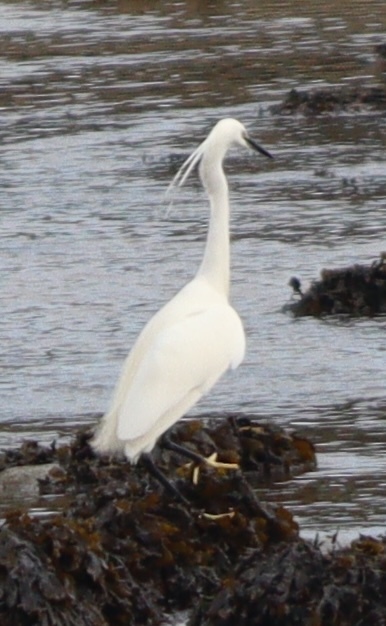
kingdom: Animalia
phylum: Chordata
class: Aves
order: Pelecaniformes
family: Ardeidae
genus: Egretta
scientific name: Egretta garzetta
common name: Little egret
